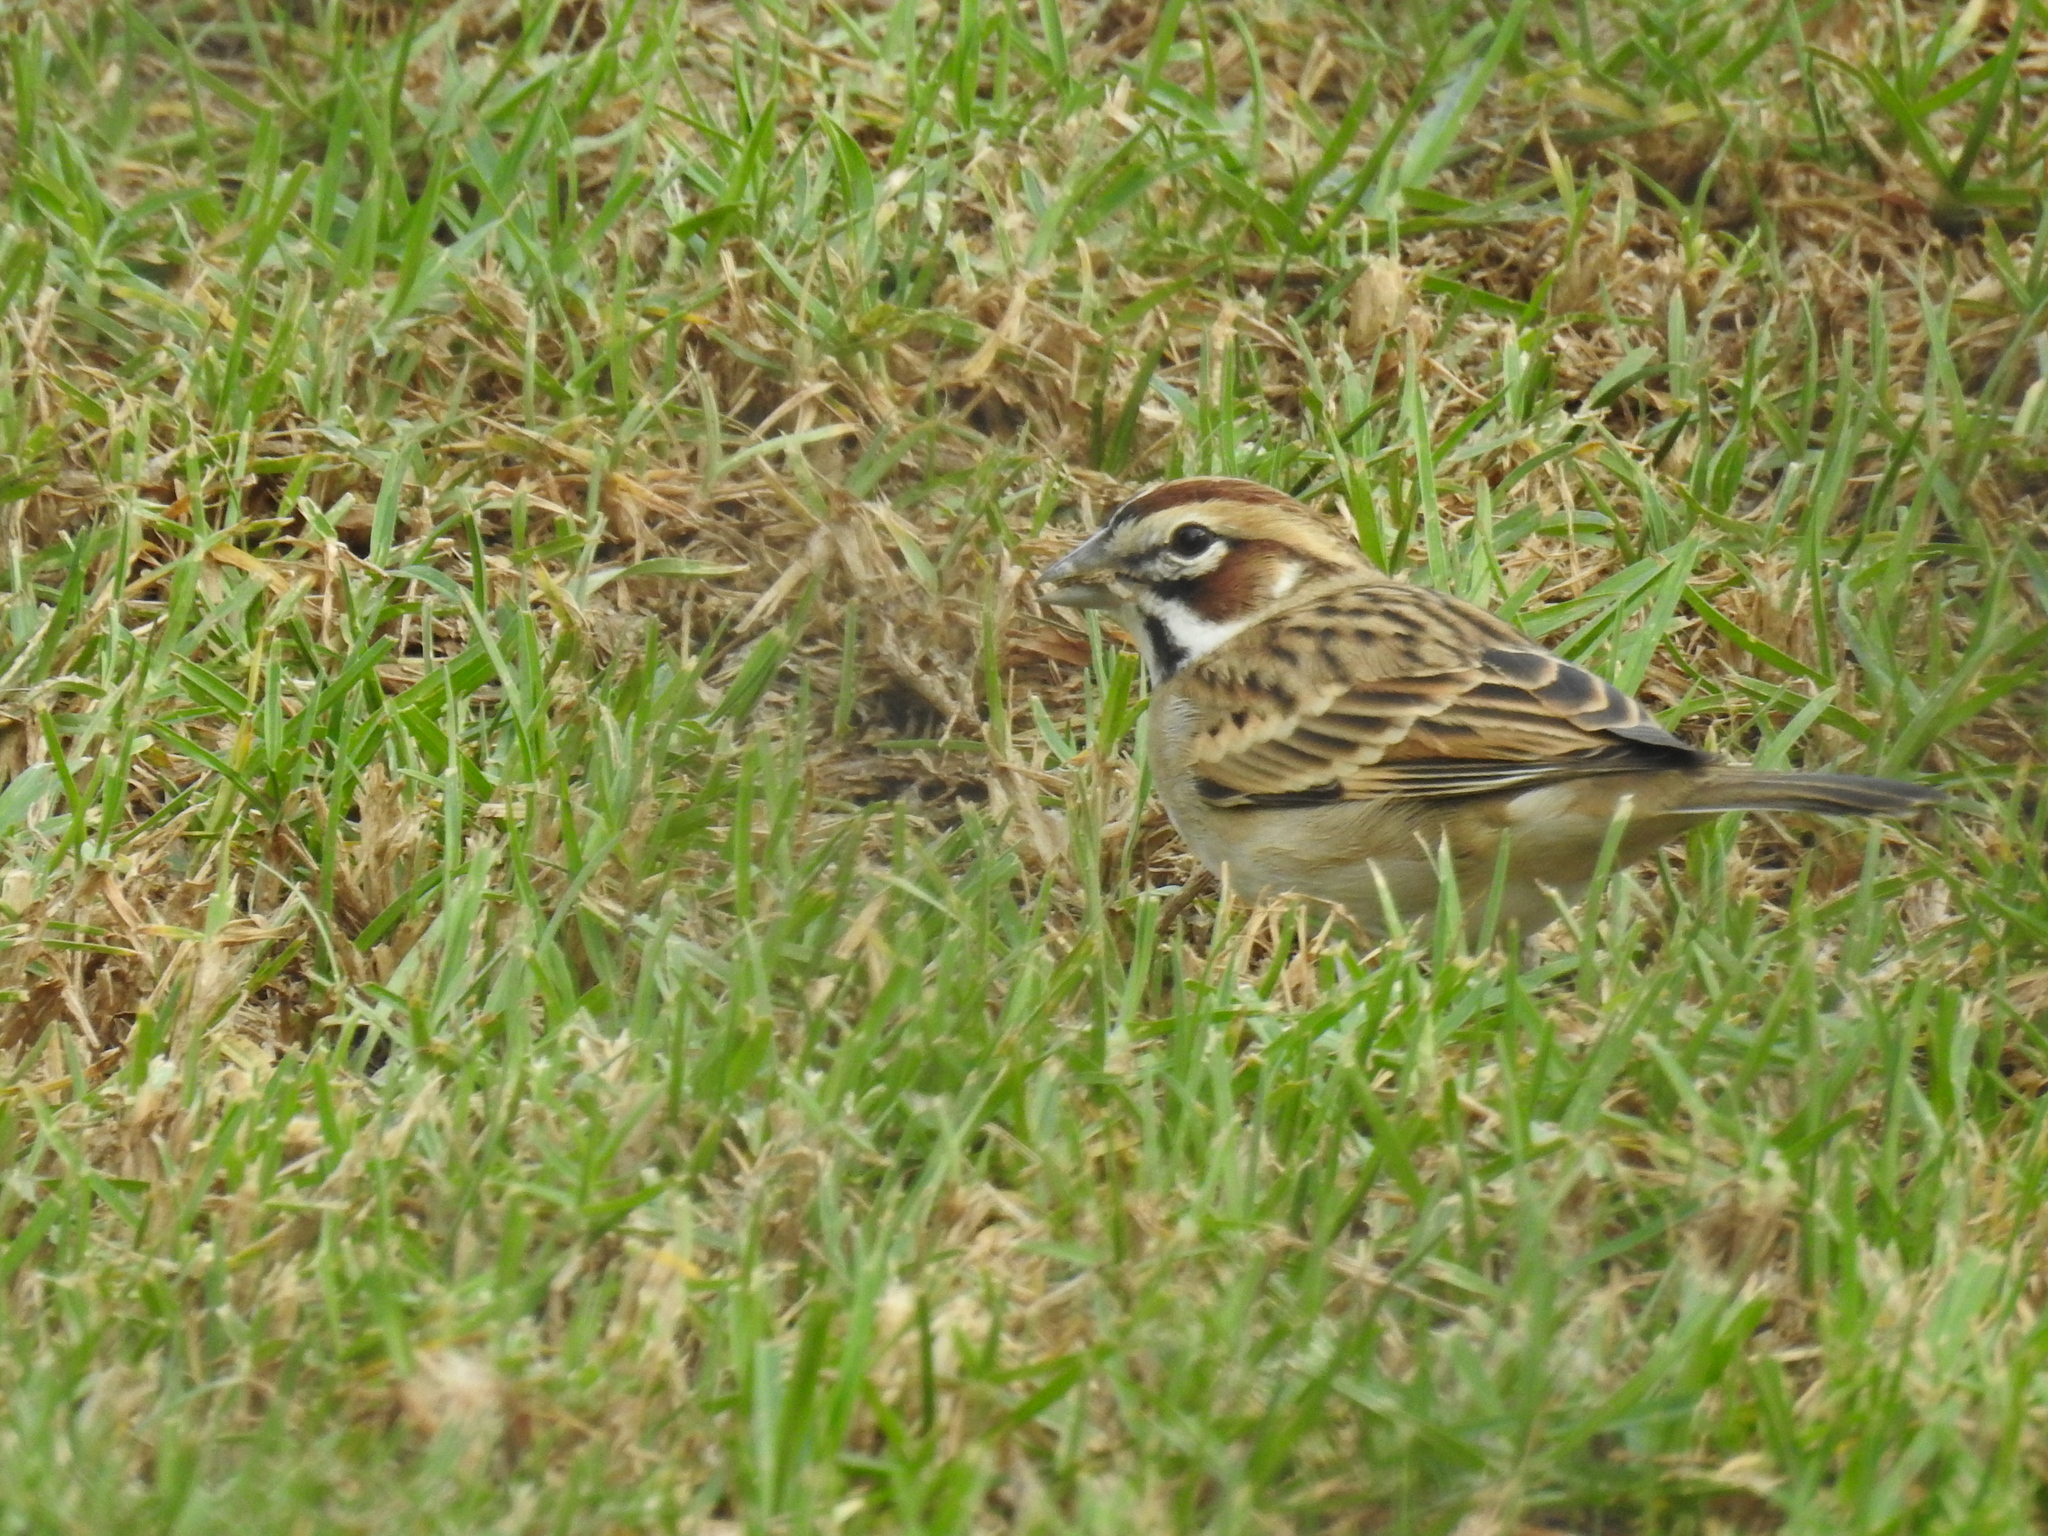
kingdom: Animalia
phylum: Chordata
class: Aves
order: Passeriformes
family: Passerellidae
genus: Chondestes
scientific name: Chondestes grammacus
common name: Lark sparrow
